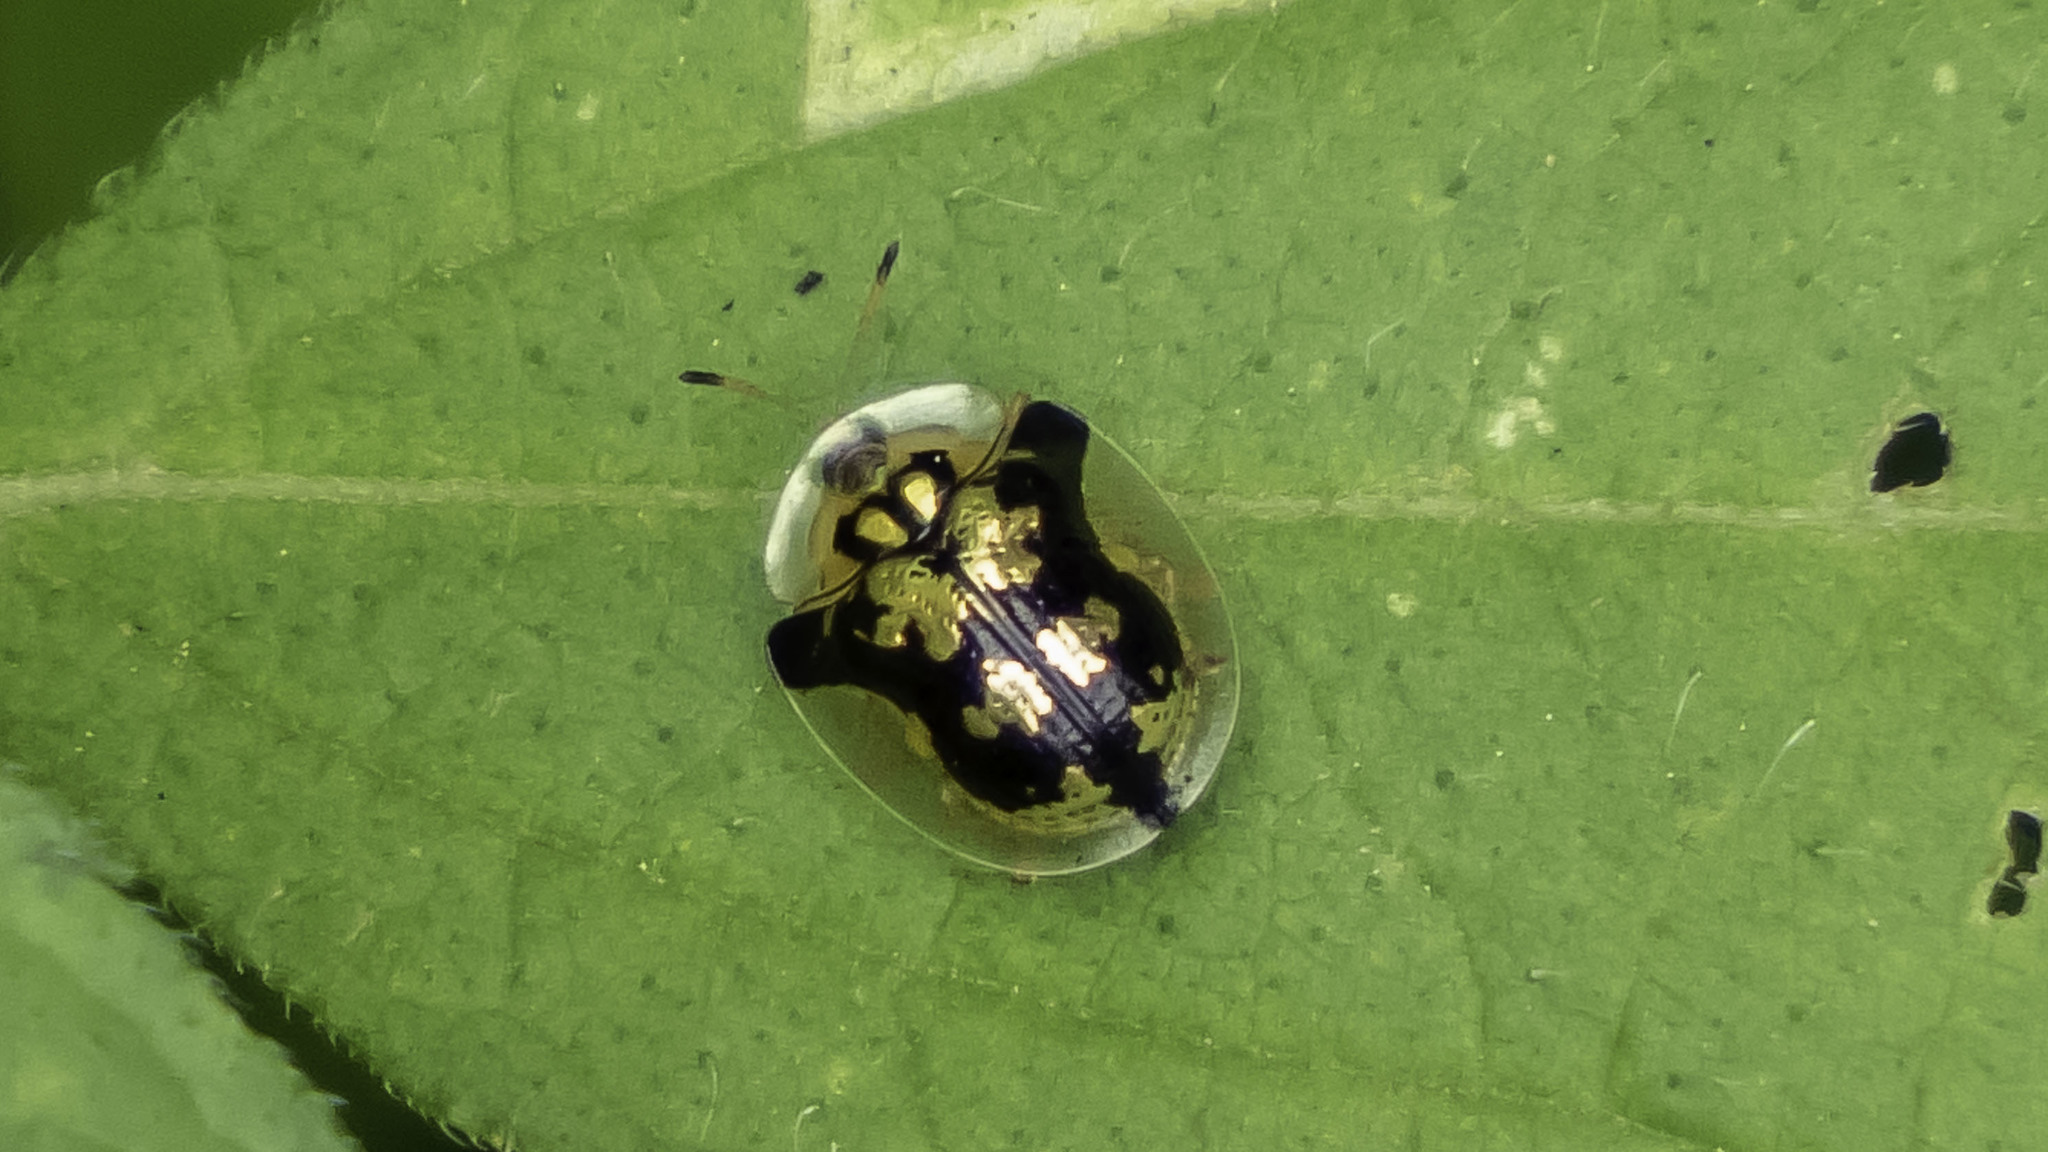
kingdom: Animalia
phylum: Arthropoda
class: Insecta
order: Coleoptera
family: Chrysomelidae
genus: Deloyala
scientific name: Deloyala guttata
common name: Mottled tortoise beetle
